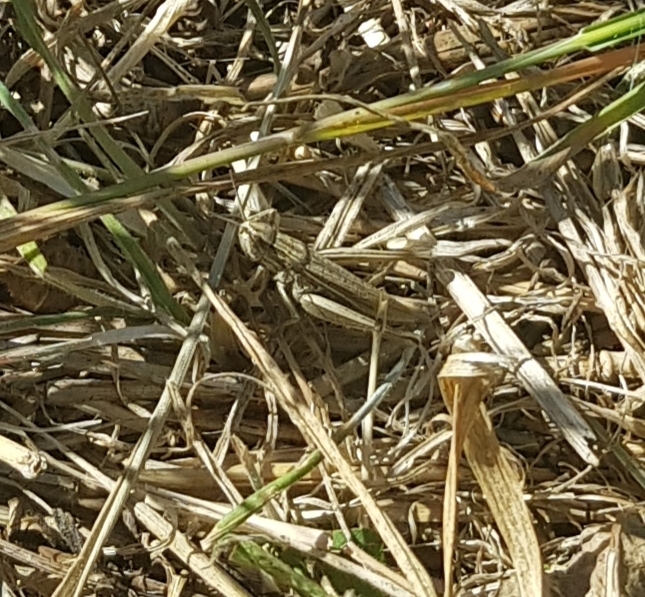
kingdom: Animalia
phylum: Arthropoda
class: Insecta
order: Orthoptera
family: Acrididae
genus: Chorthippus
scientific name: Chorthippus albomarginatus
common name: Lesser marsh grasshopper
